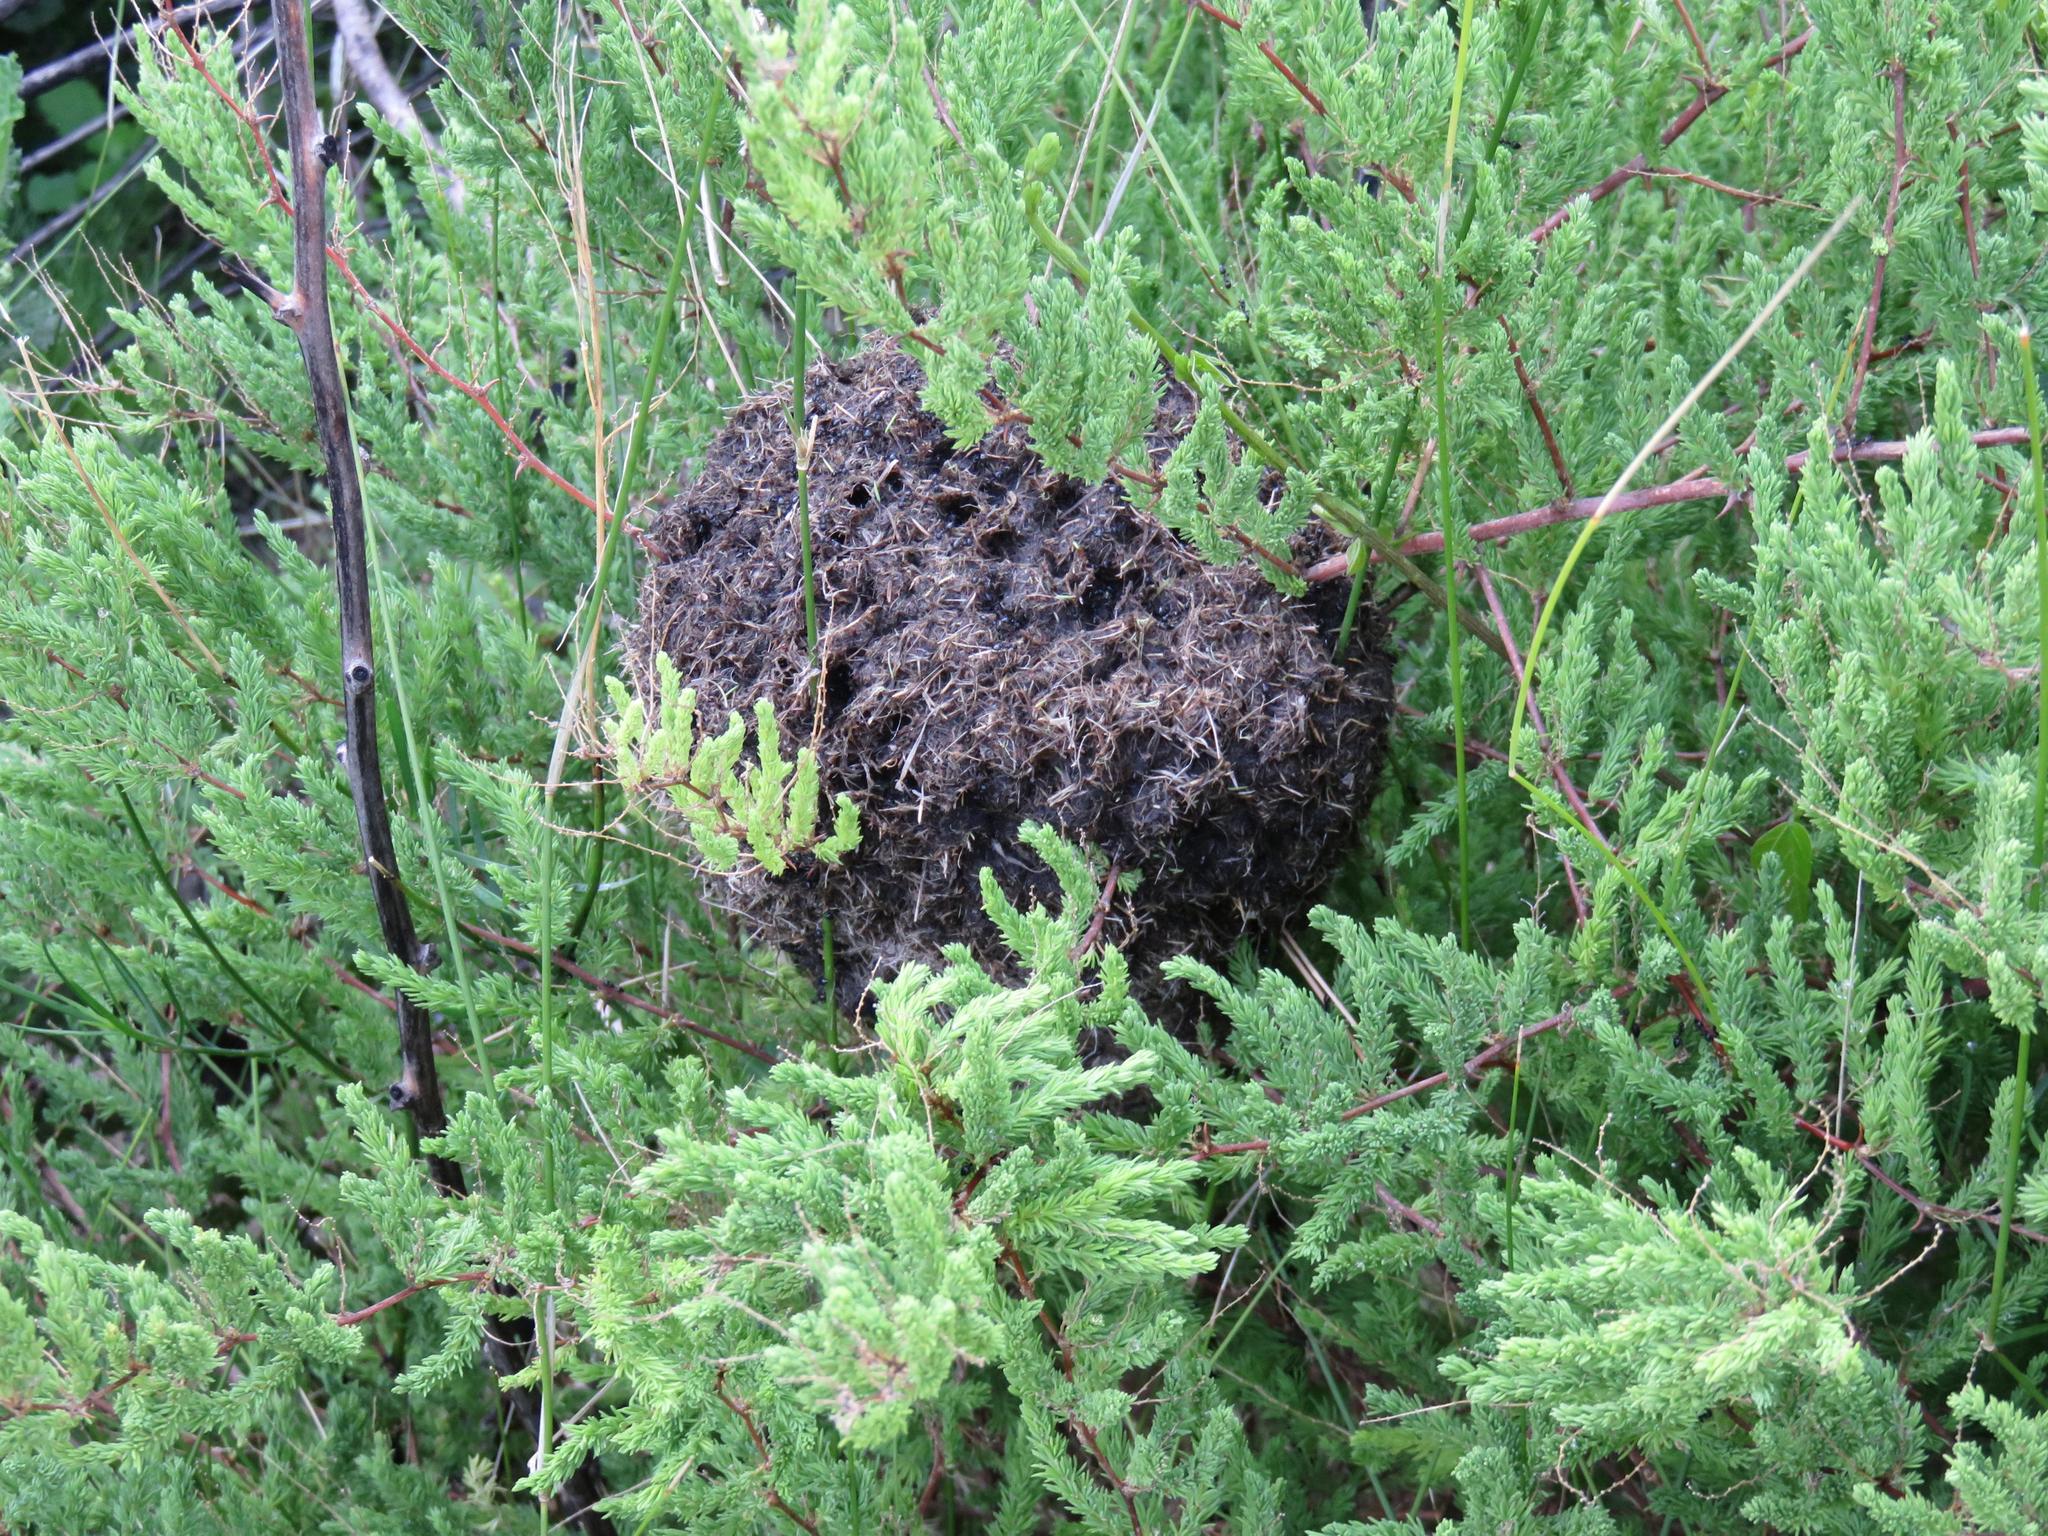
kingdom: Animalia
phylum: Arthropoda
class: Insecta
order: Hymenoptera
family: Formicidae
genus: Crematogaster
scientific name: Crematogaster peringueyi
